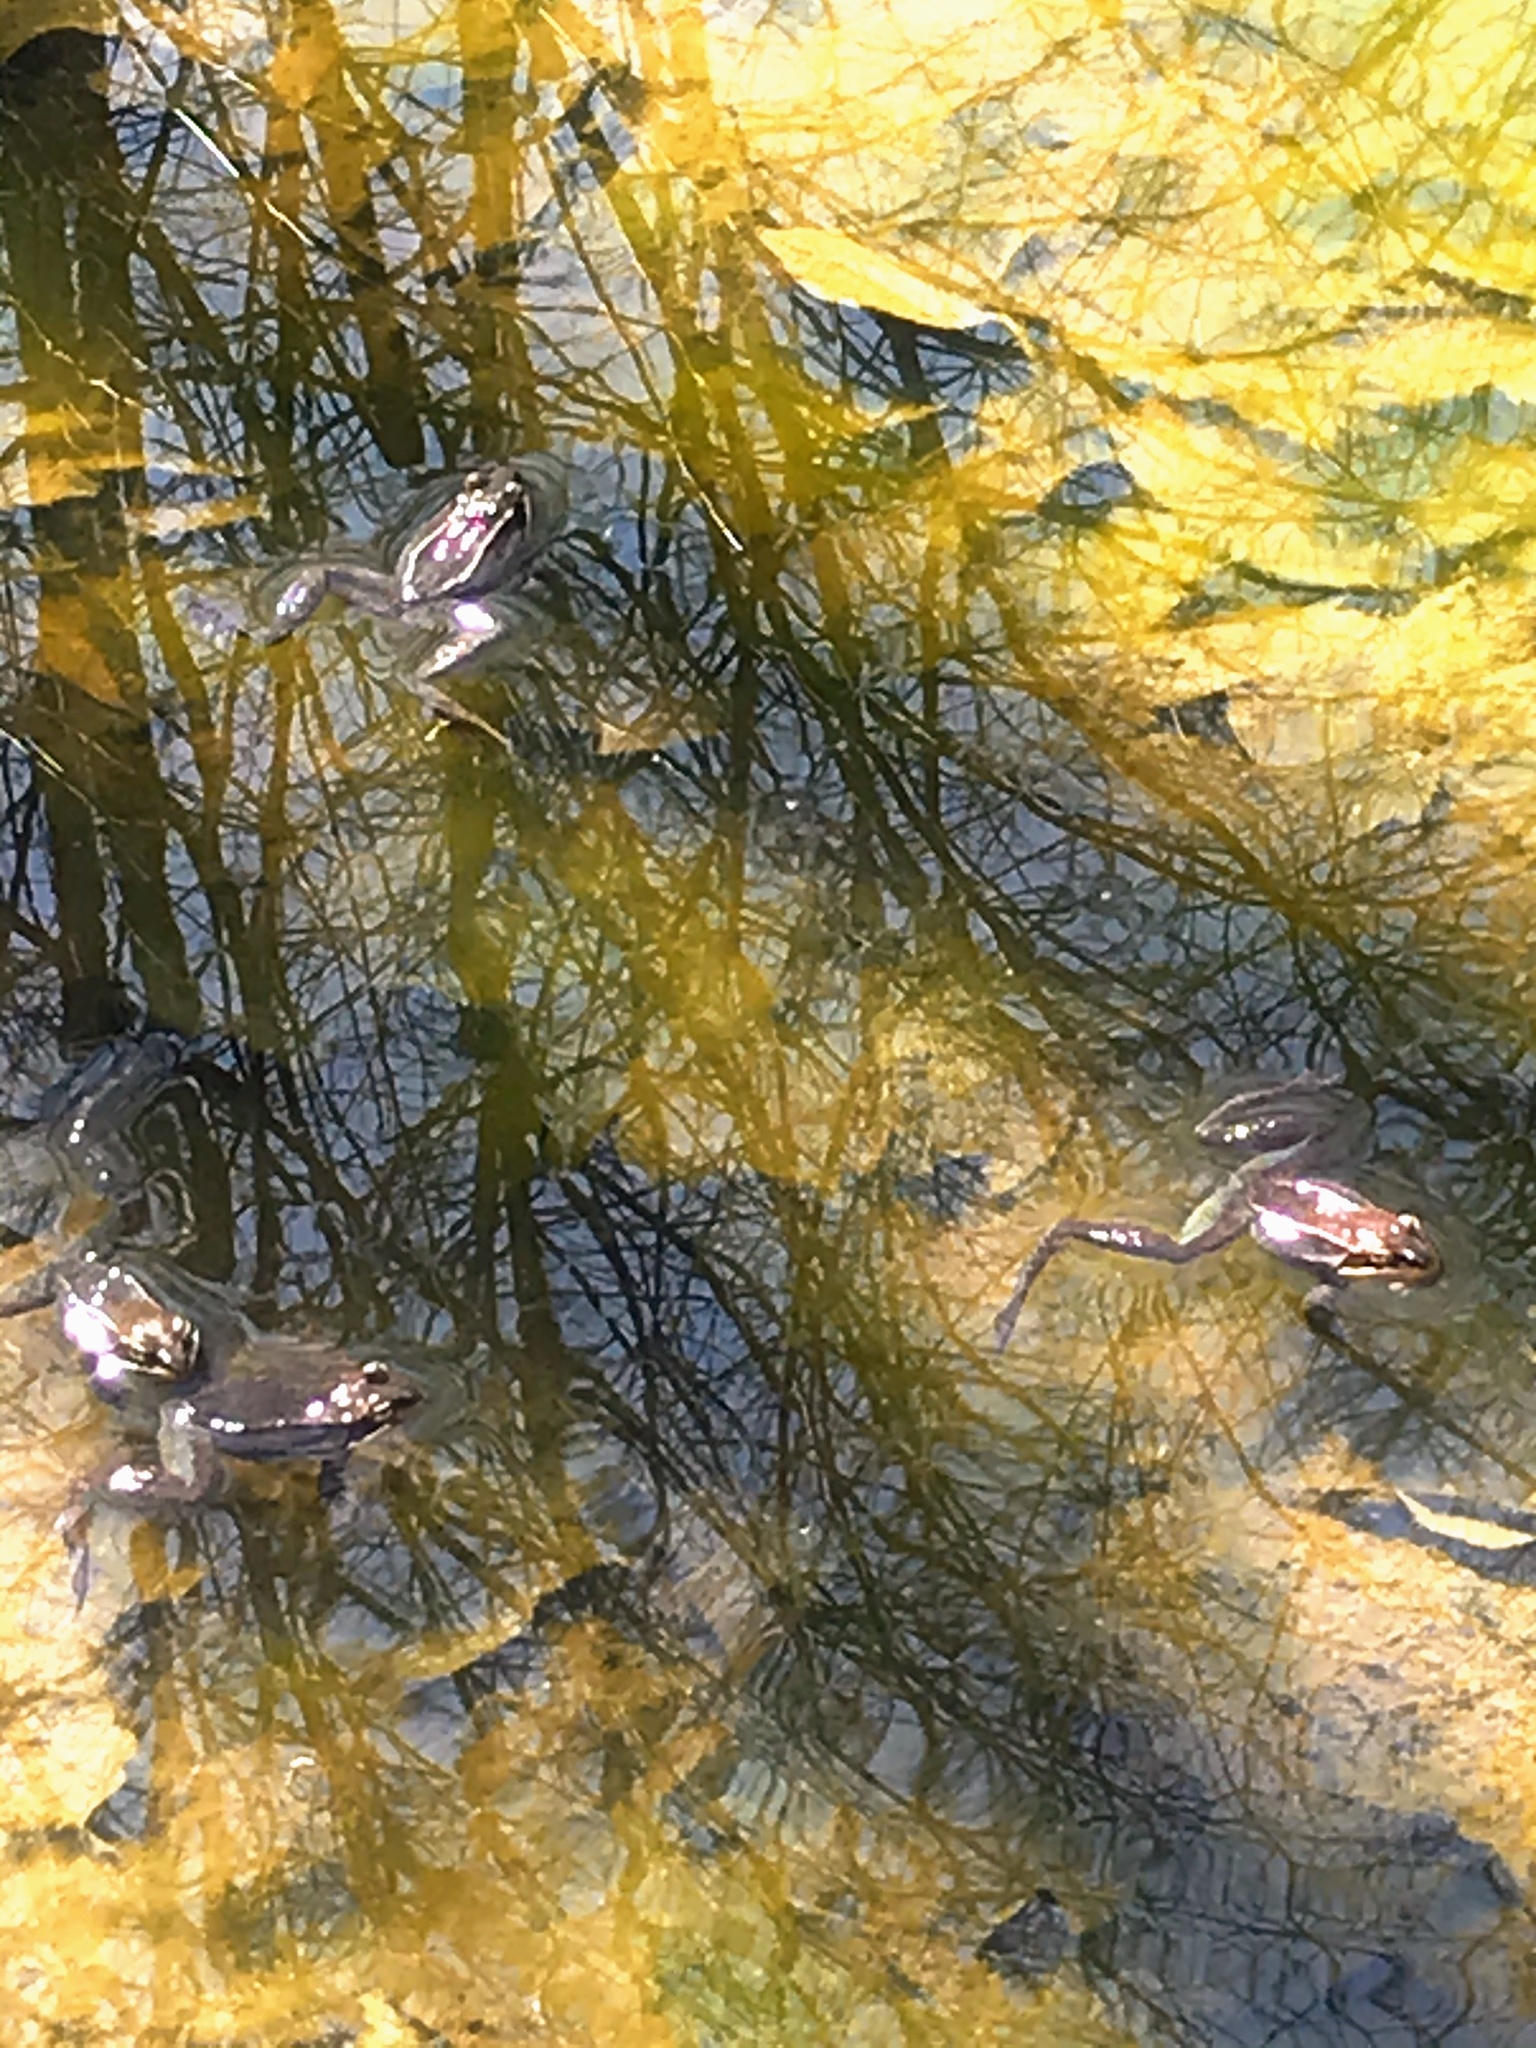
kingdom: Animalia
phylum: Chordata
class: Amphibia
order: Anura
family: Ranidae
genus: Lithobates
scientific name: Lithobates sylvaticus
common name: Wood frog
